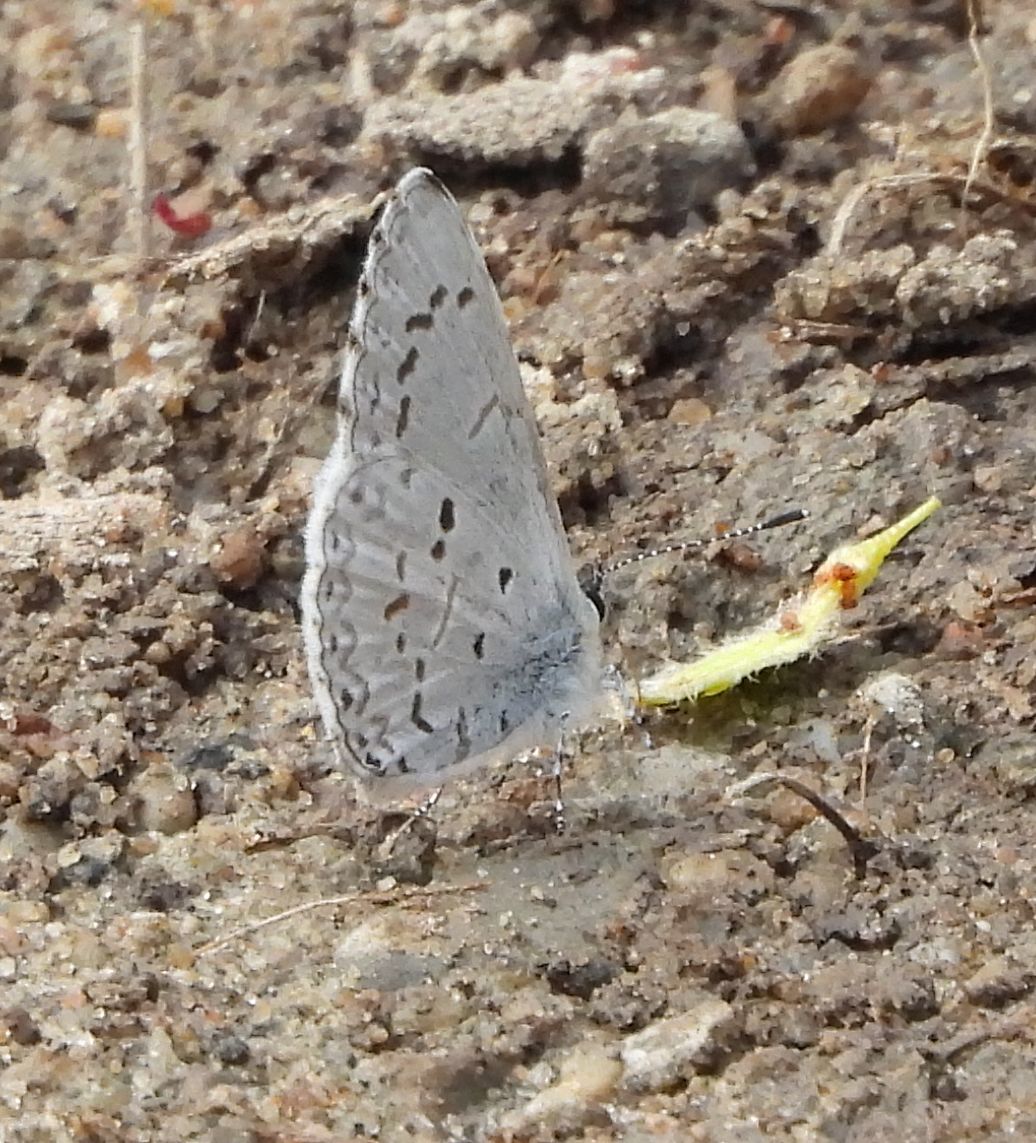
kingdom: Animalia
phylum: Arthropoda
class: Insecta
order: Lepidoptera
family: Lycaenidae
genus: Celastrina
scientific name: Celastrina lucia
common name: Lucia azure
